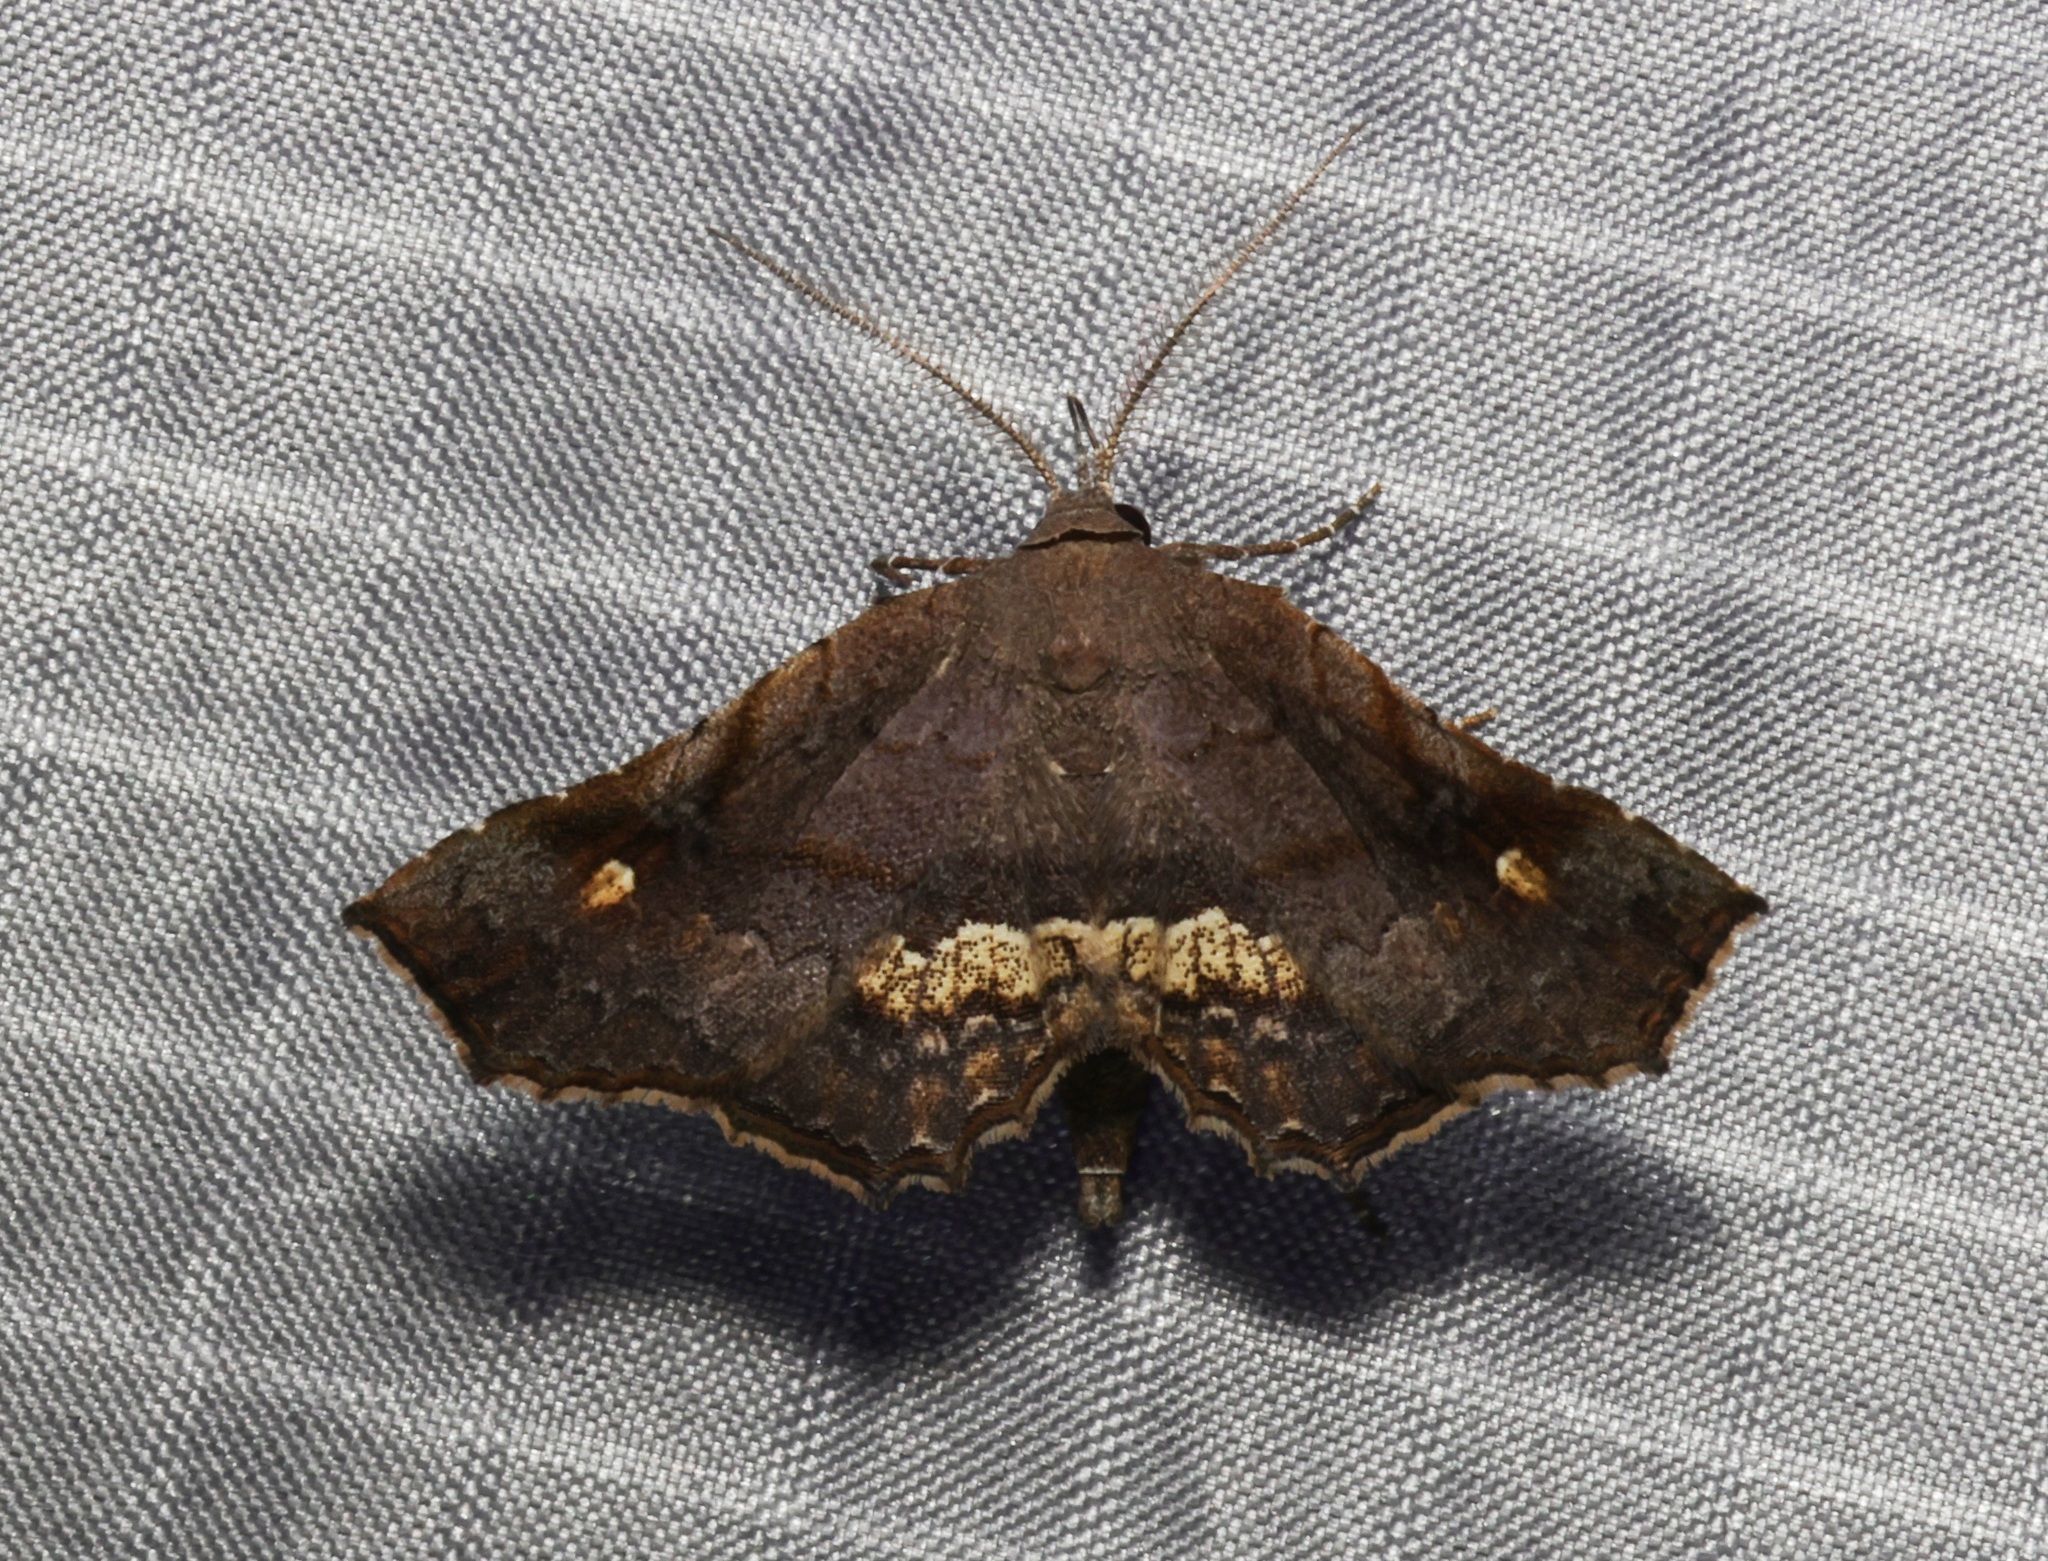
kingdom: Animalia
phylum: Arthropoda
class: Insecta
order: Lepidoptera
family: Erebidae
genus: Throana
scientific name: Throana pectinifer
